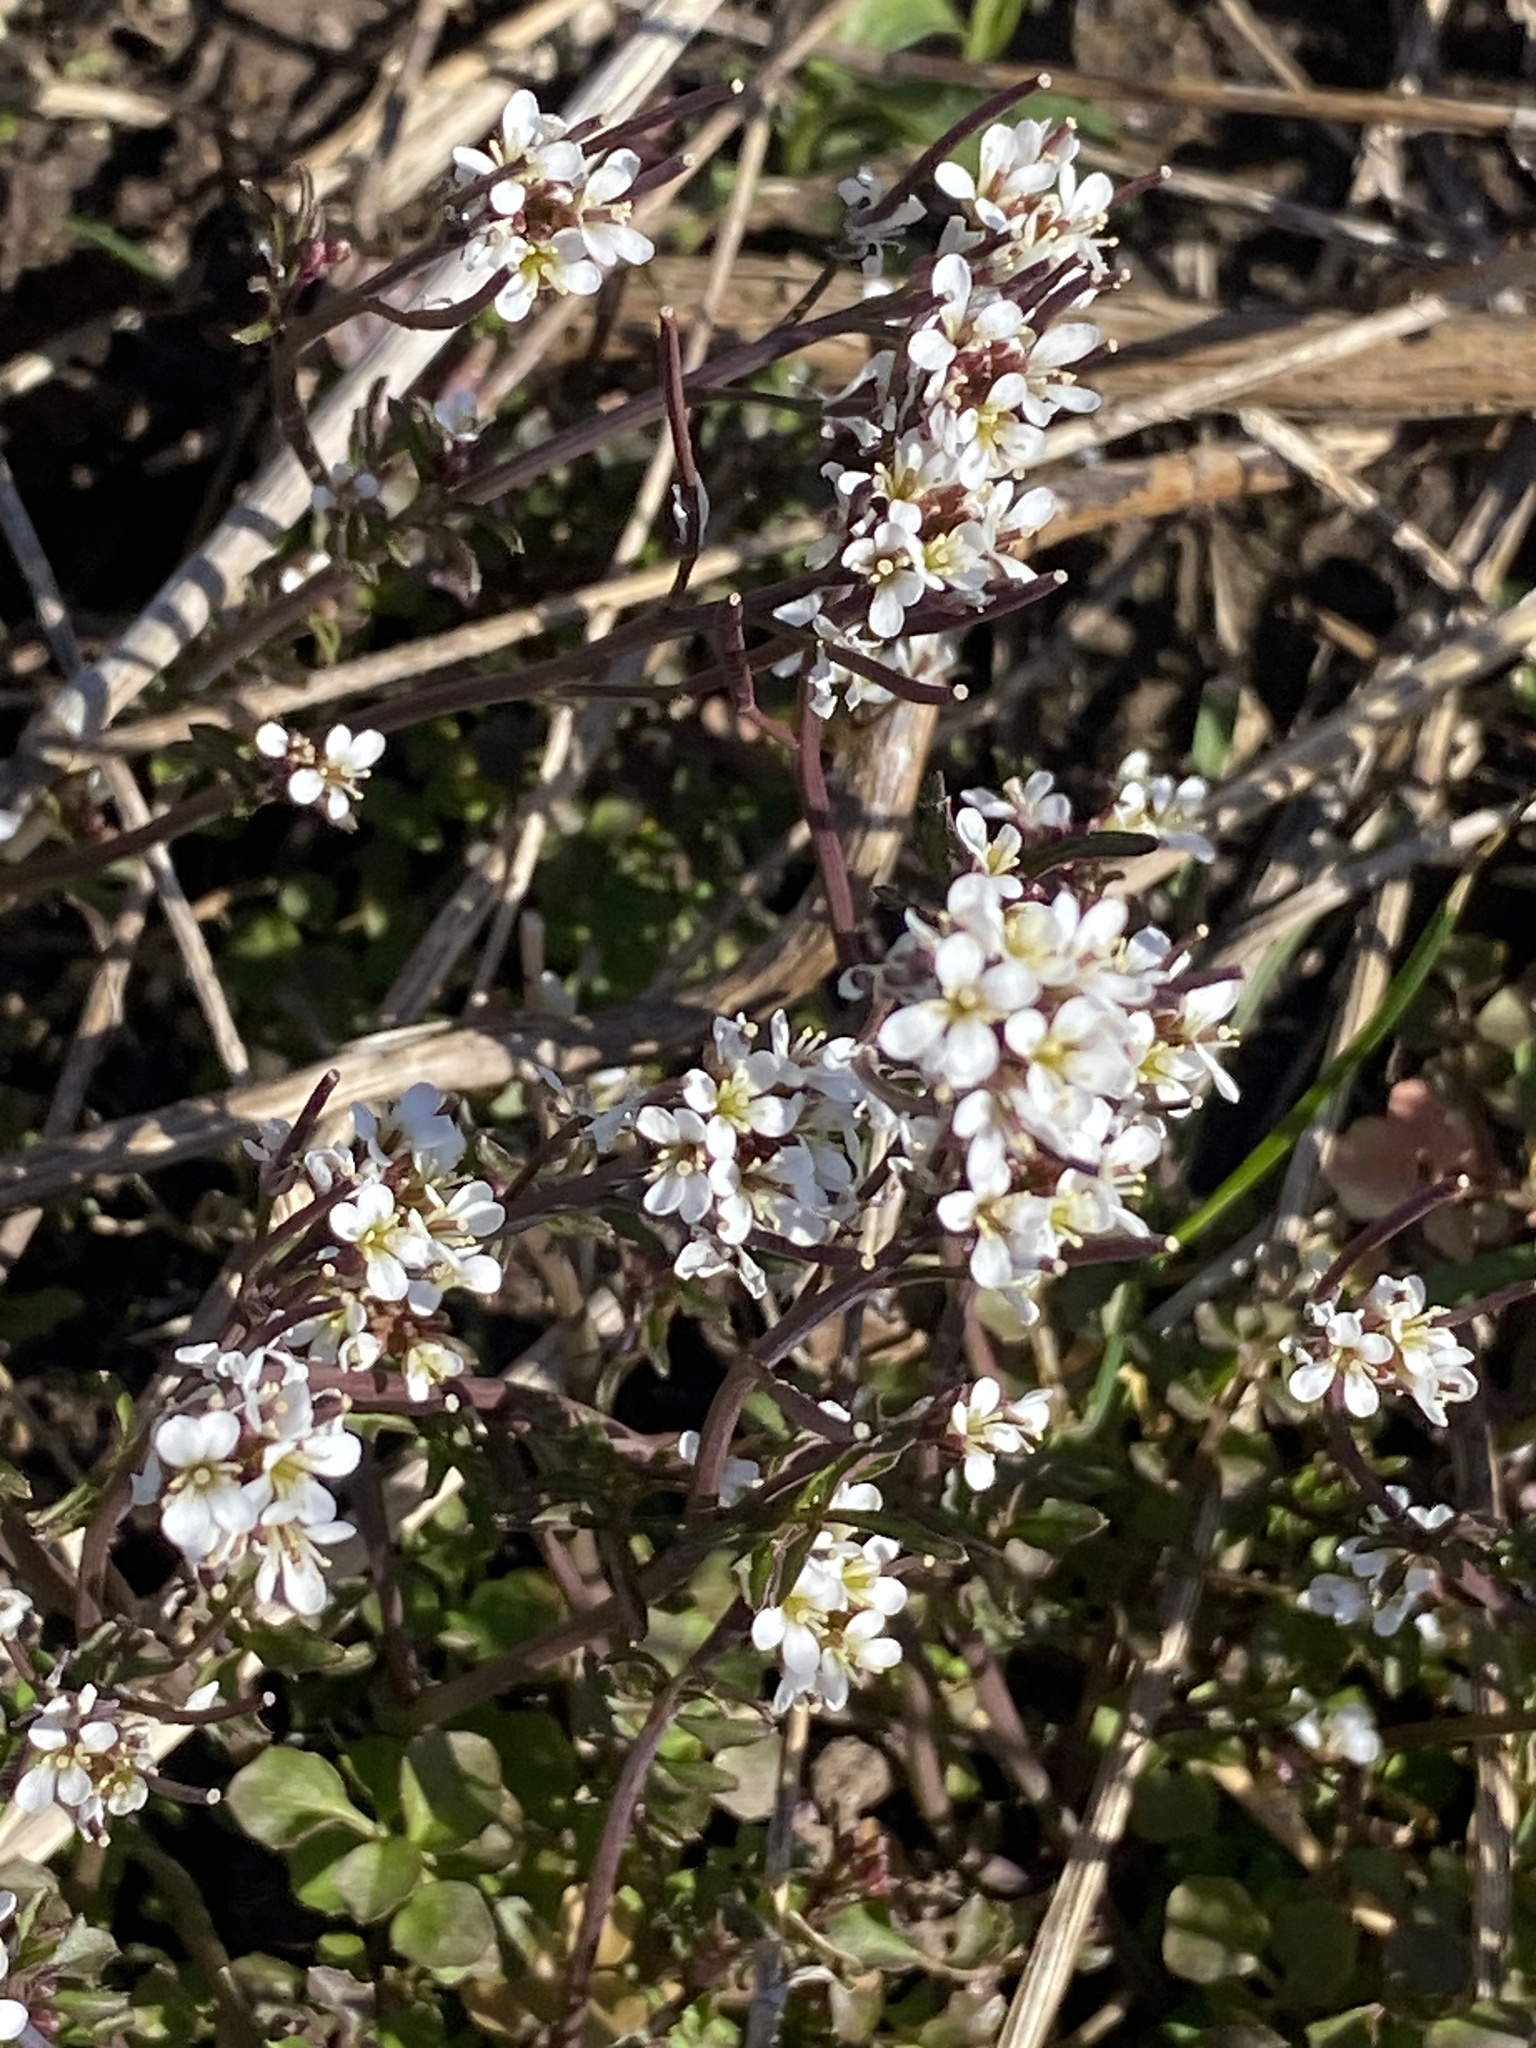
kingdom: Plantae
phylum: Tracheophyta
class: Magnoliopsida
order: Brassicales
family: Brassicaceae
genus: Cardamine
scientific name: Cardamine hirsuta
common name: Hairy bittercress
